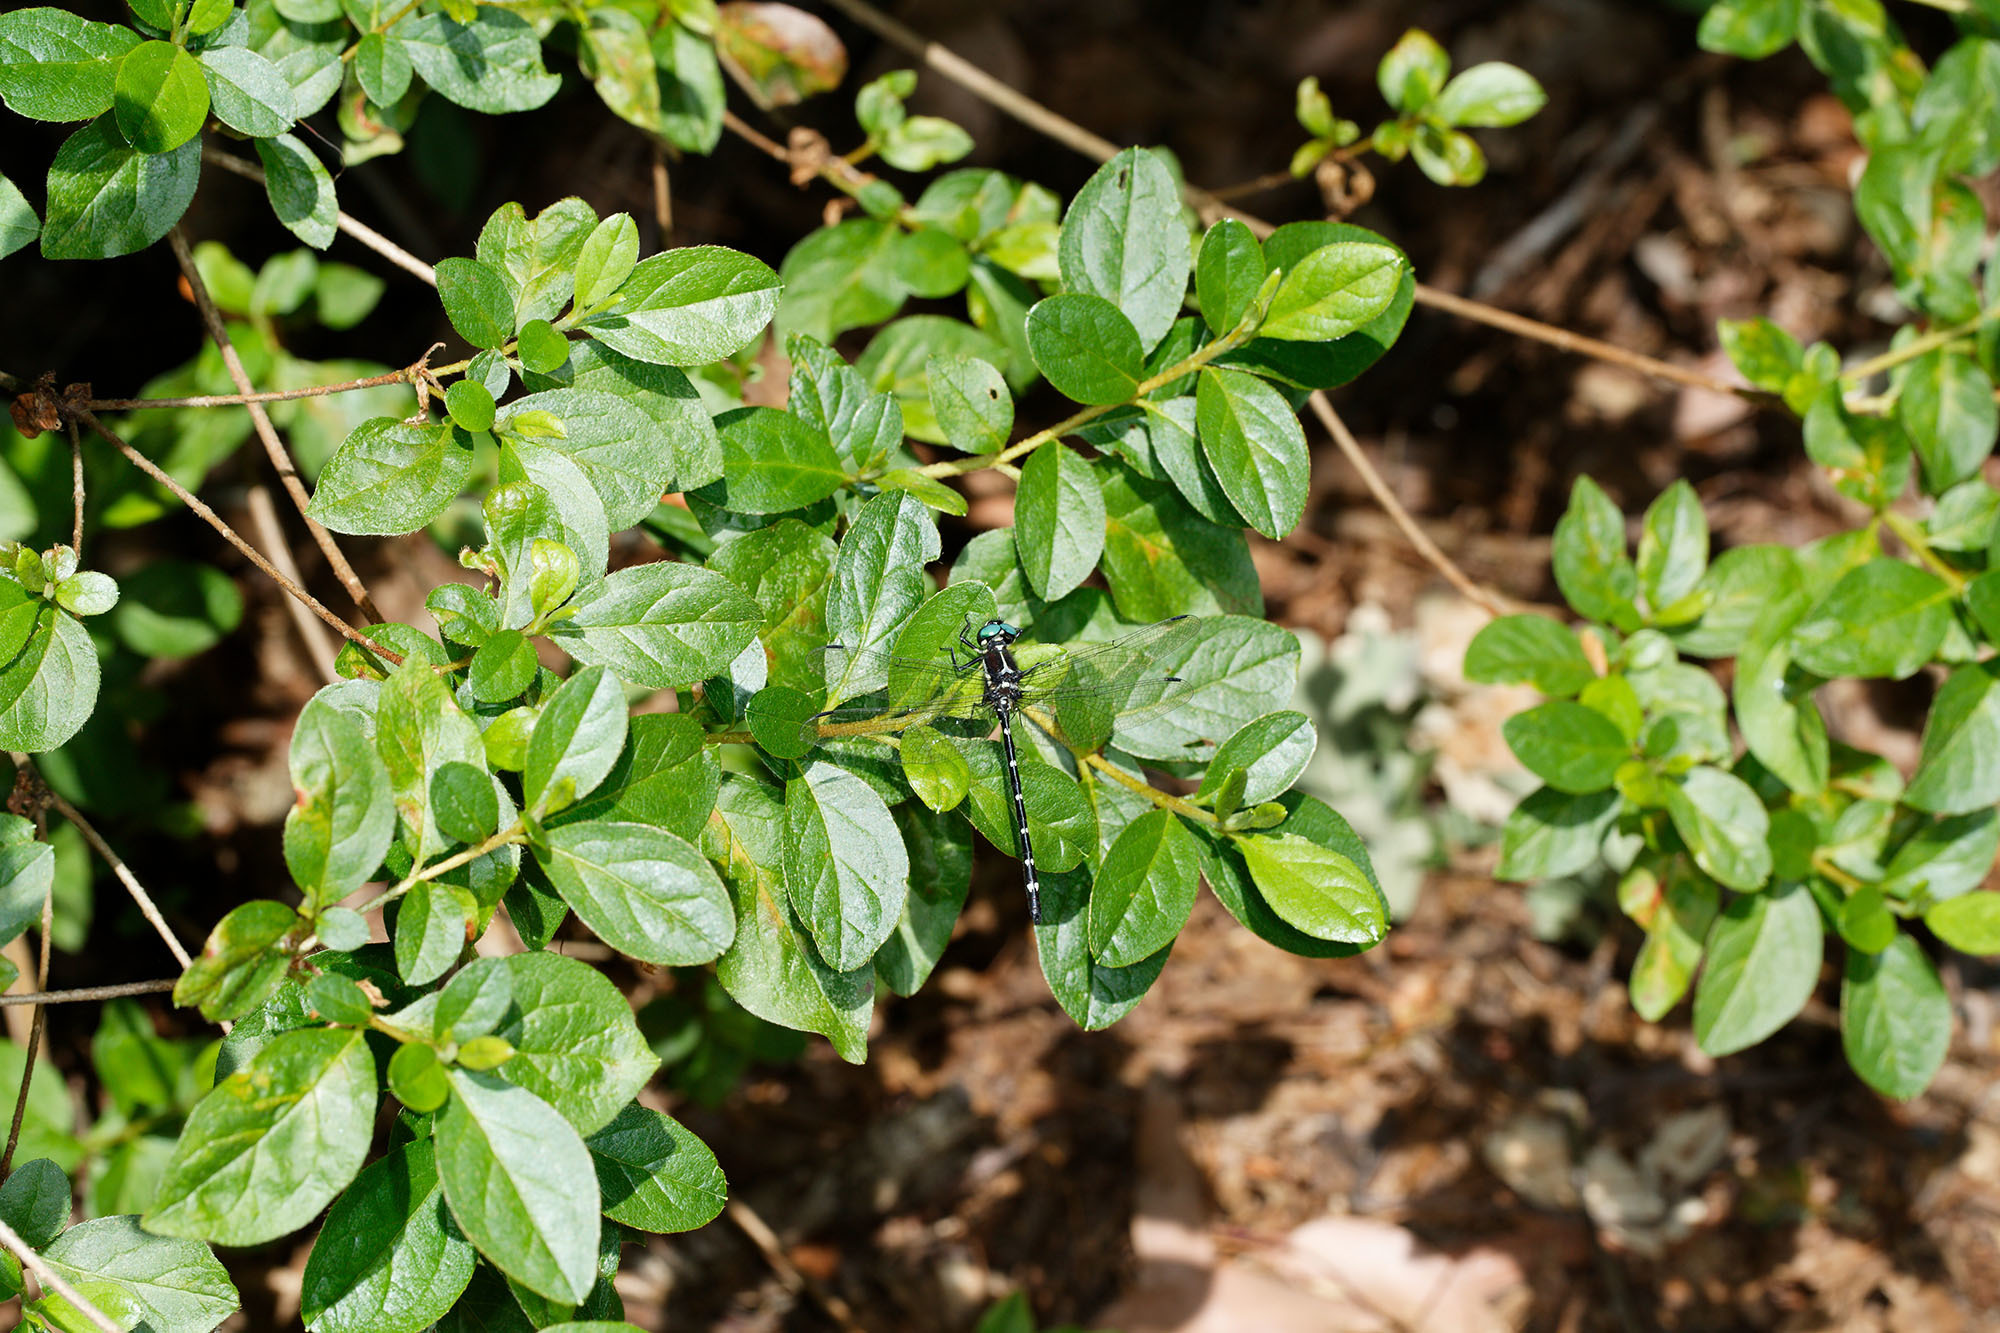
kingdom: Animalia
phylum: Arthropoda
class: Insecta
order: Odonata
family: Synthemistidae
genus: Eusynthemis
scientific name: Eusynthemis guttata
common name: Southern tigertail
